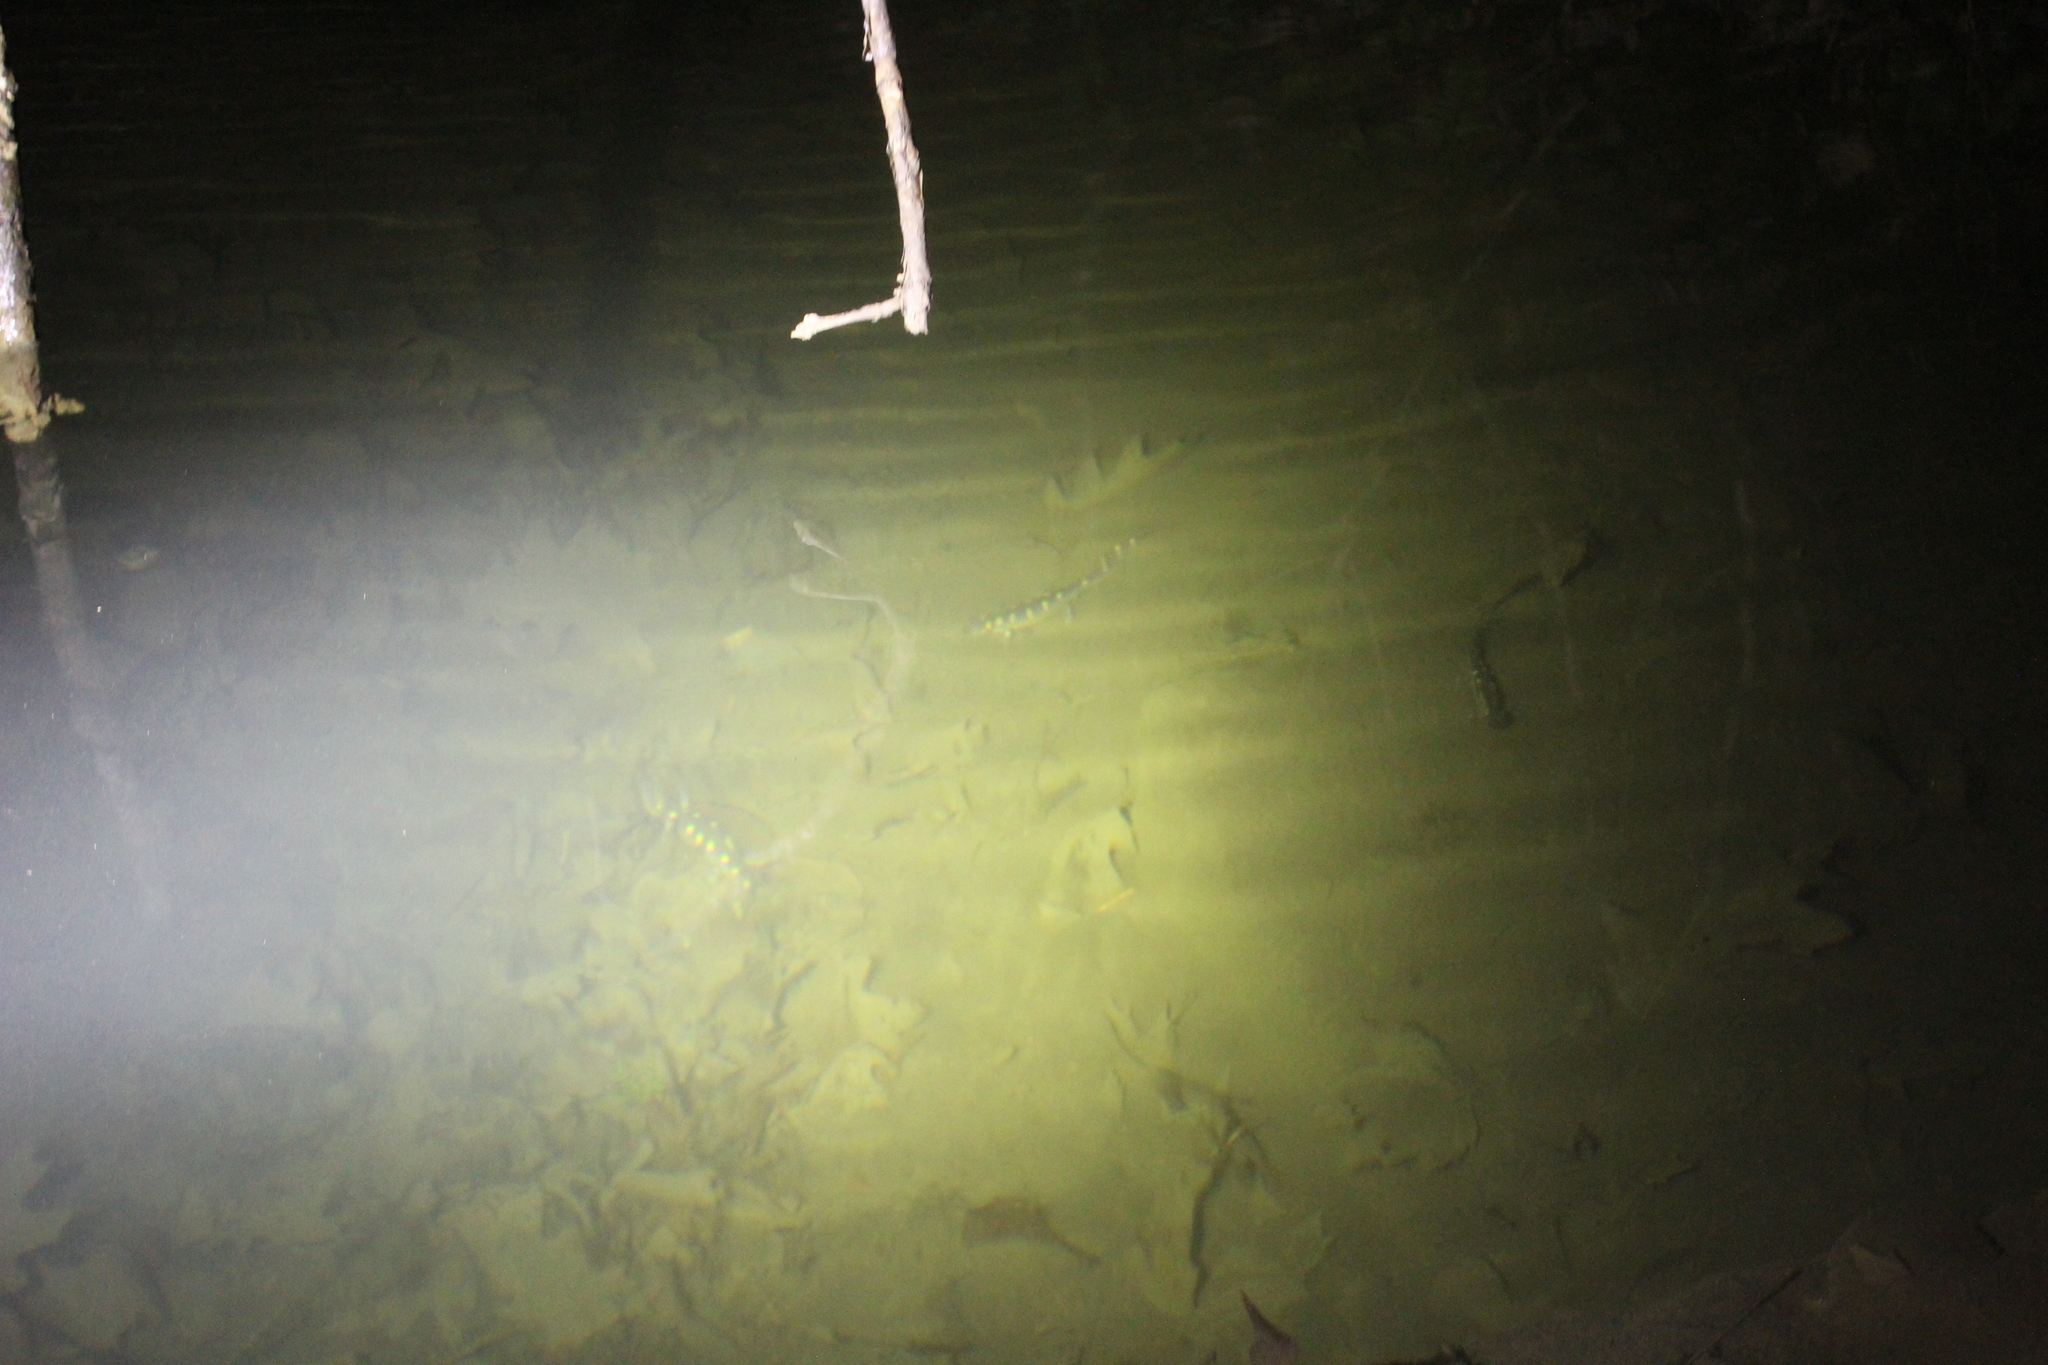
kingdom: Animalia
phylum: Chordata
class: Amphibia
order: Caudata
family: Ambystomatidae
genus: Ambystoma
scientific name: Ambystoma maculatum
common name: Spotted salamander
